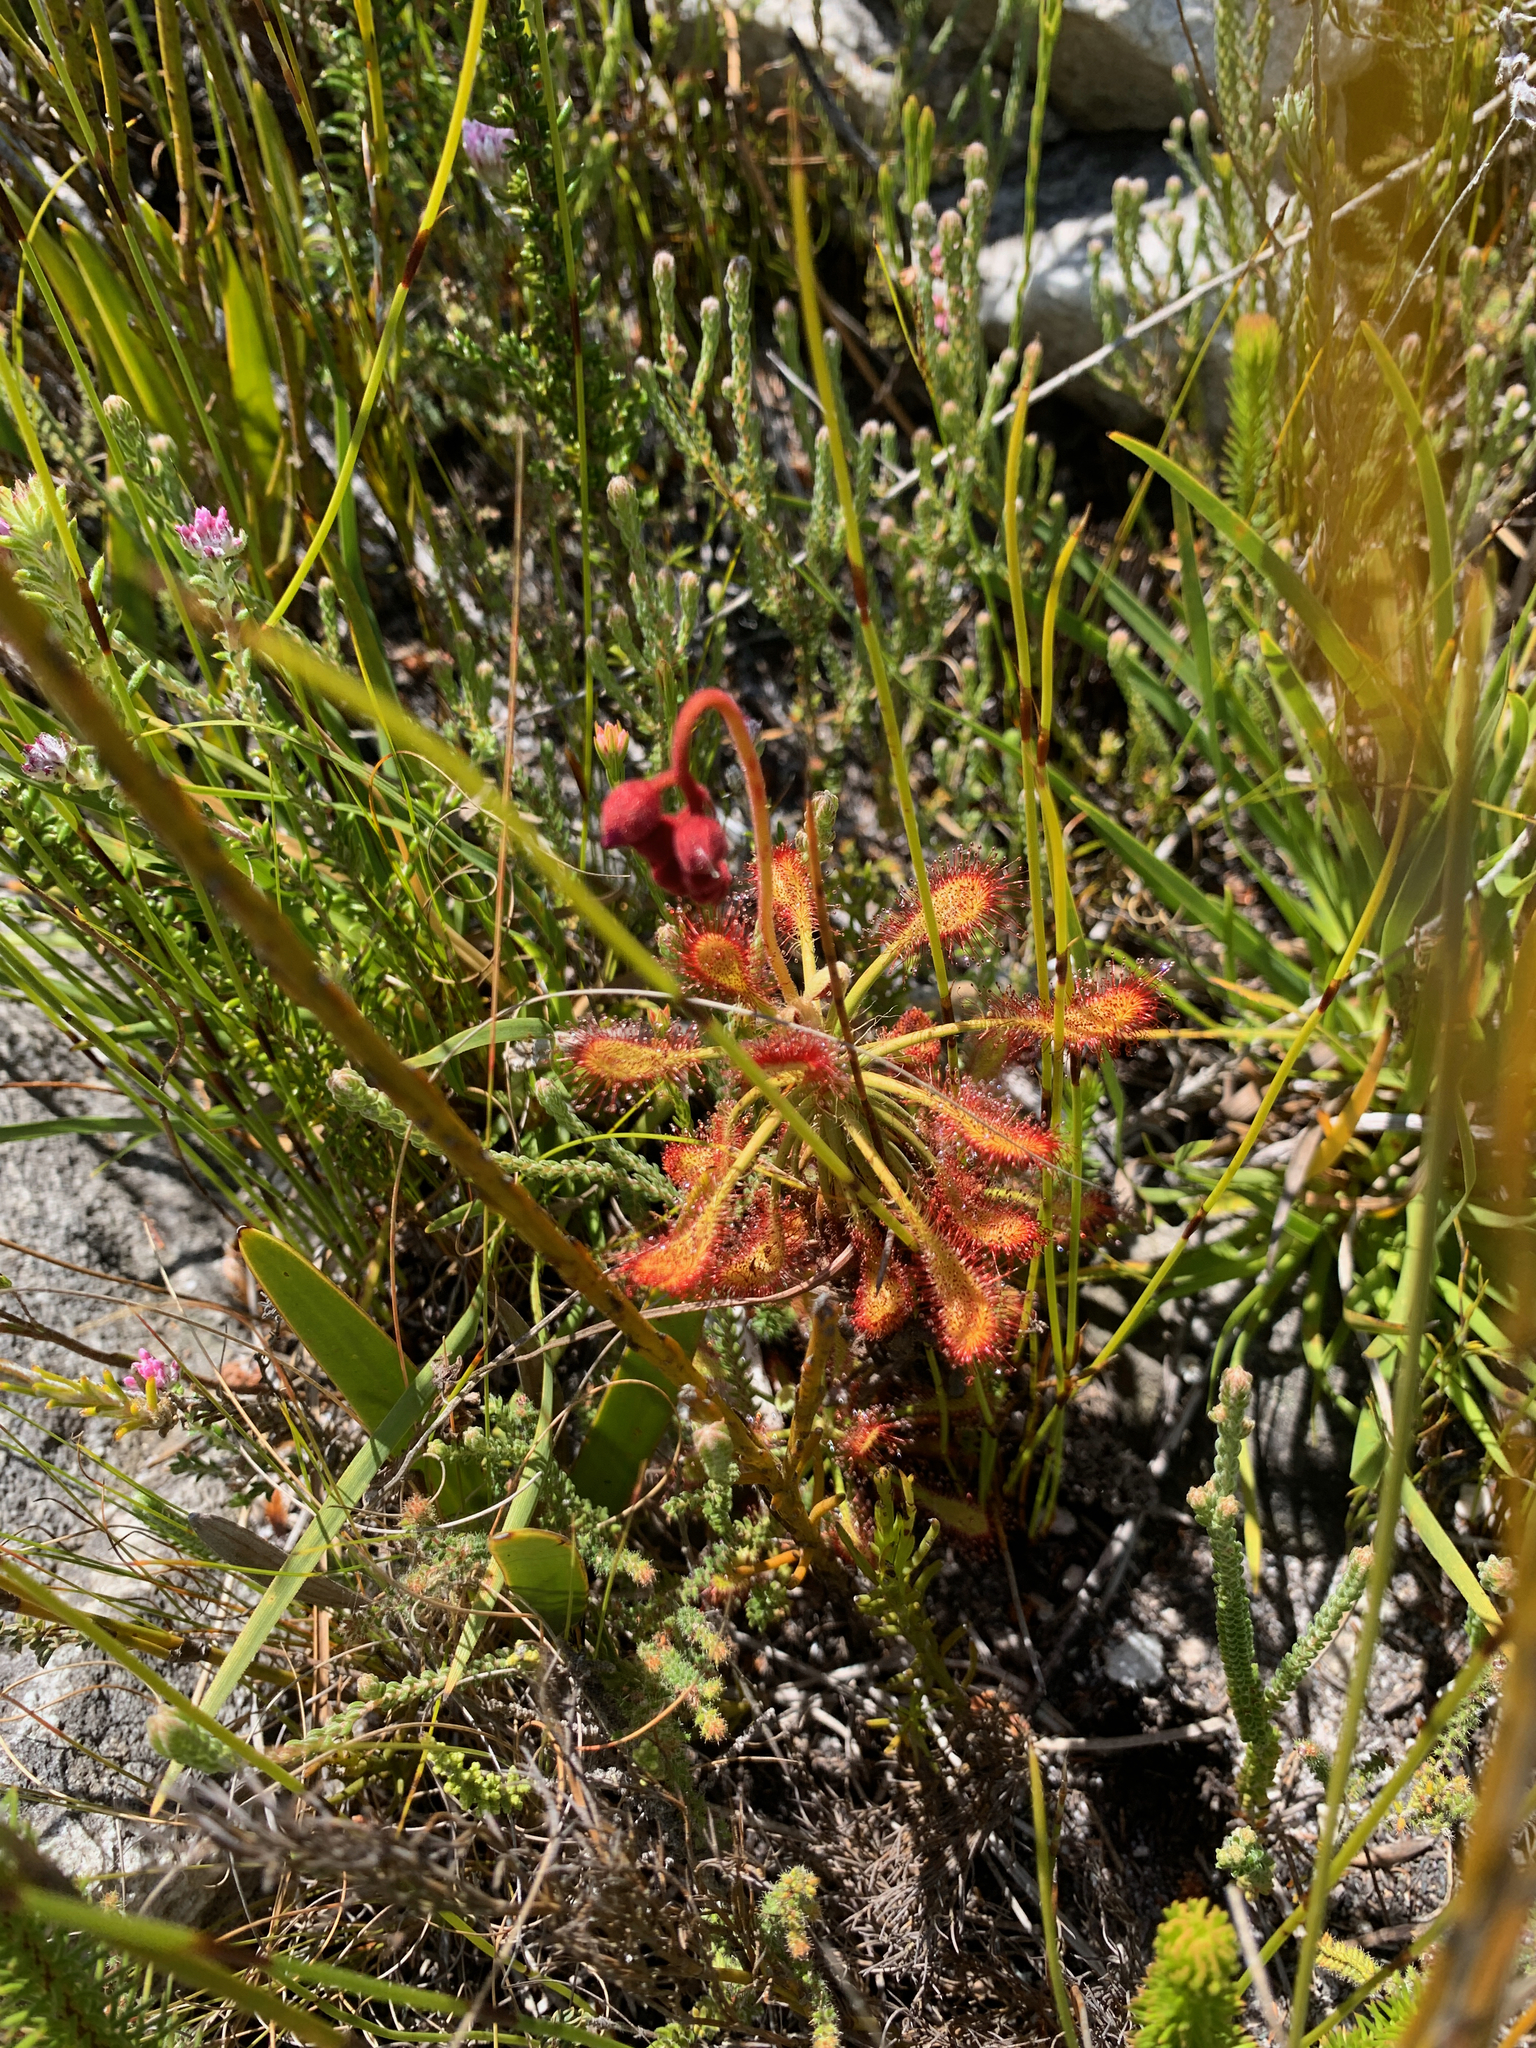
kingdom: Plantae
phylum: Tracheophyta
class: Magnoliopsida
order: Caryophyllales
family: Droseraceae
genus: Drosera
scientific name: Drosera glabripes
